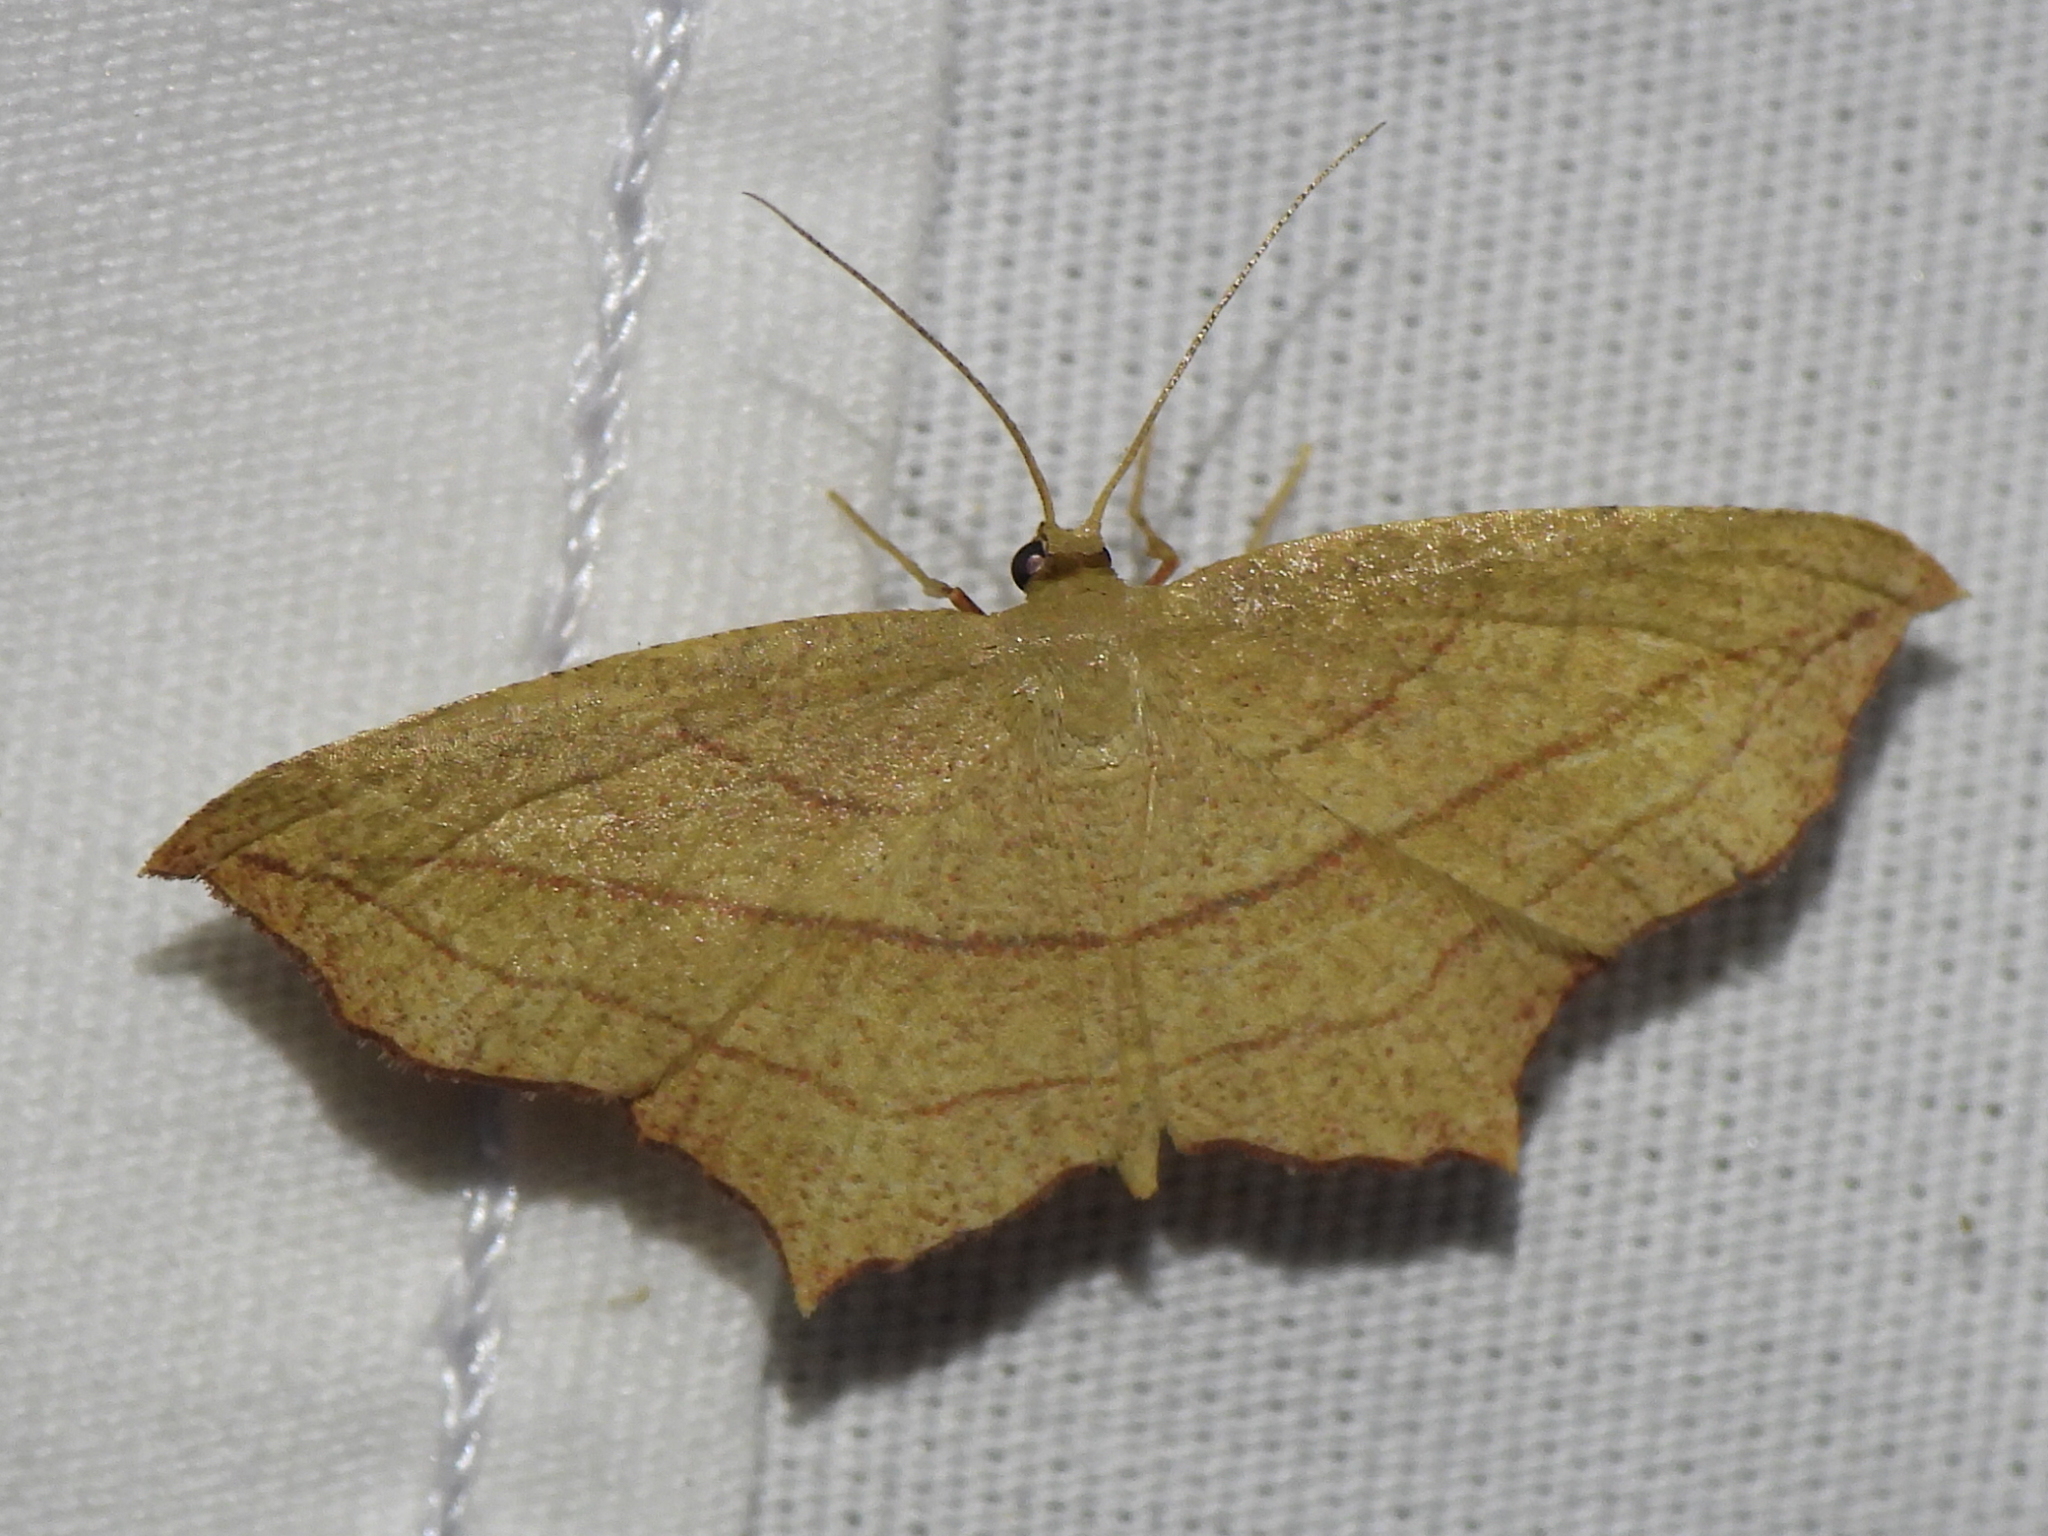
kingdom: Animalia
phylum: Arthropoda
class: Insecta
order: Lepidoptera
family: Geometridae
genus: Timandra
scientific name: Timandra amaturaria
